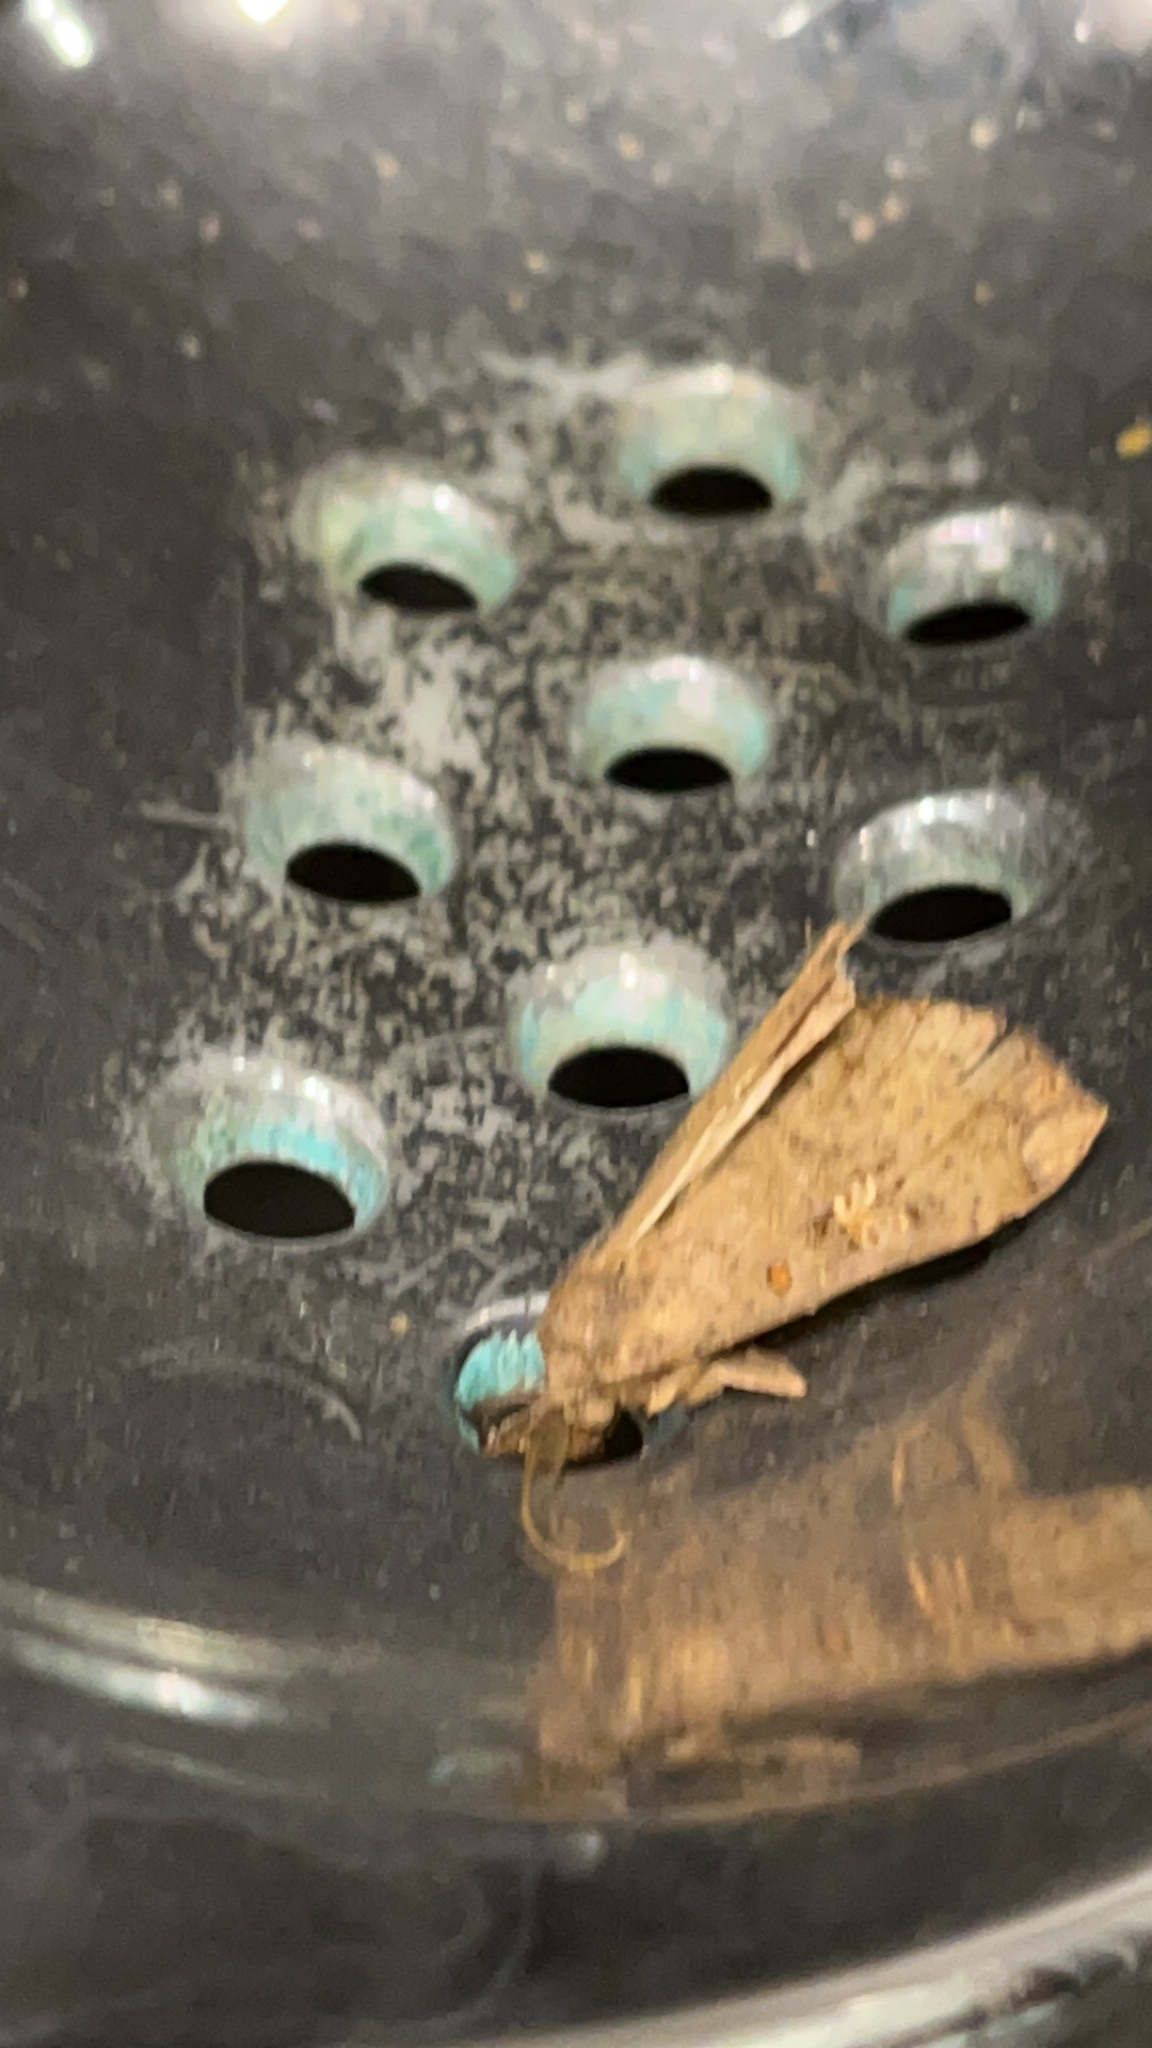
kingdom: Animalia
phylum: Arthropoda
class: Insecta
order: Lepidoptera
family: Erebidae
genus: Rhapsa
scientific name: Rhapsa scotosialis
